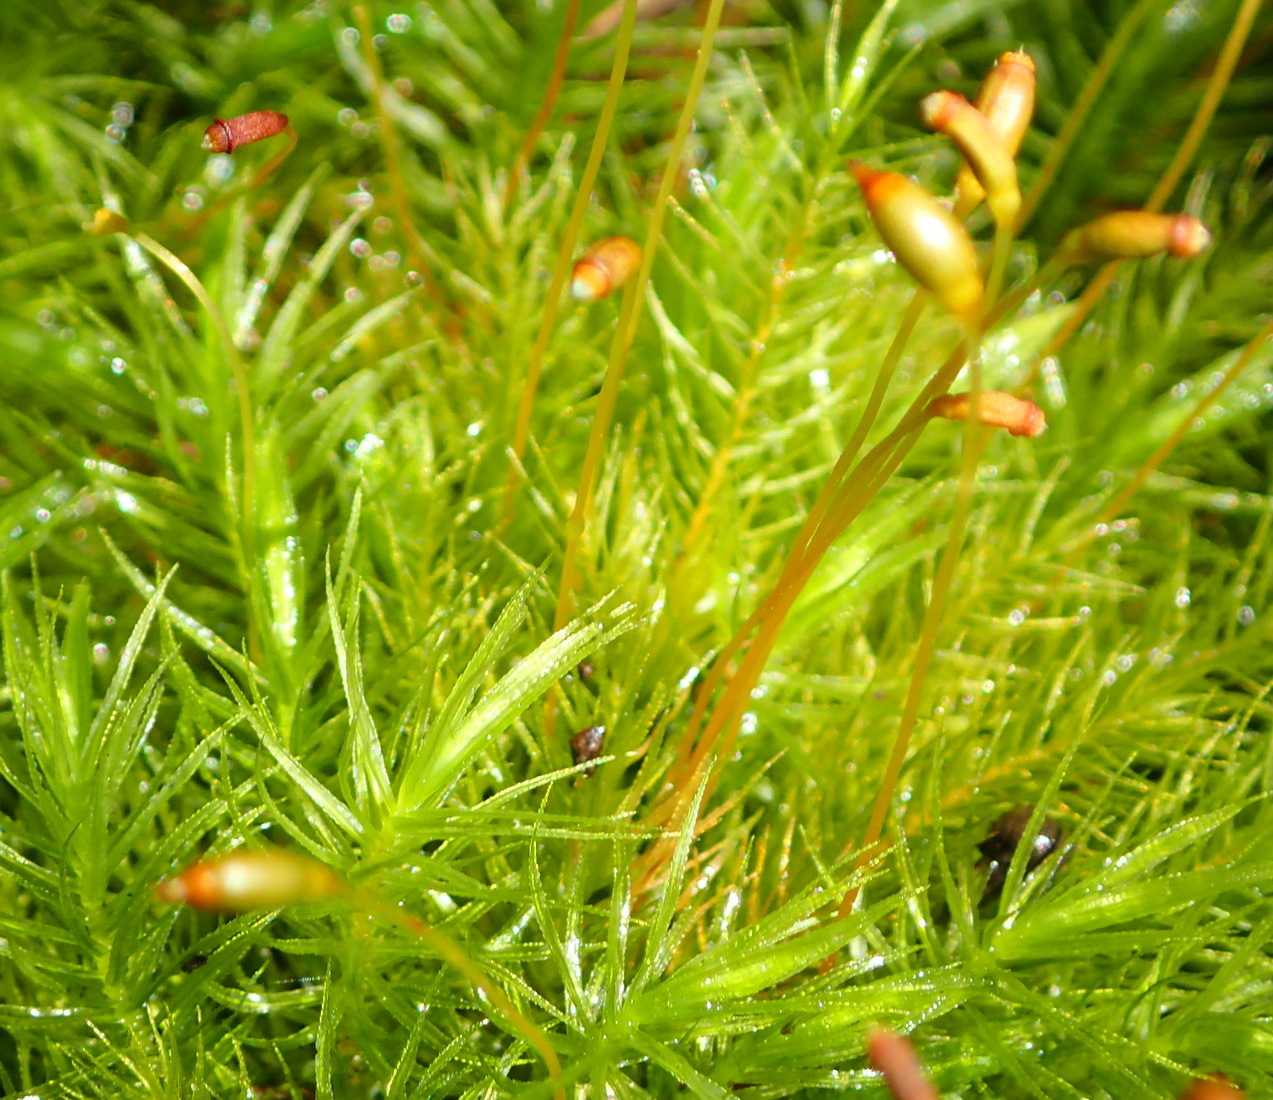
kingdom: Plantae
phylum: Bryophyta
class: Bryopsida
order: Rhizogoniales
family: Calomniaceae
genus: Pyrrhobryum
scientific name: Pyrrhobryum spiniforme
